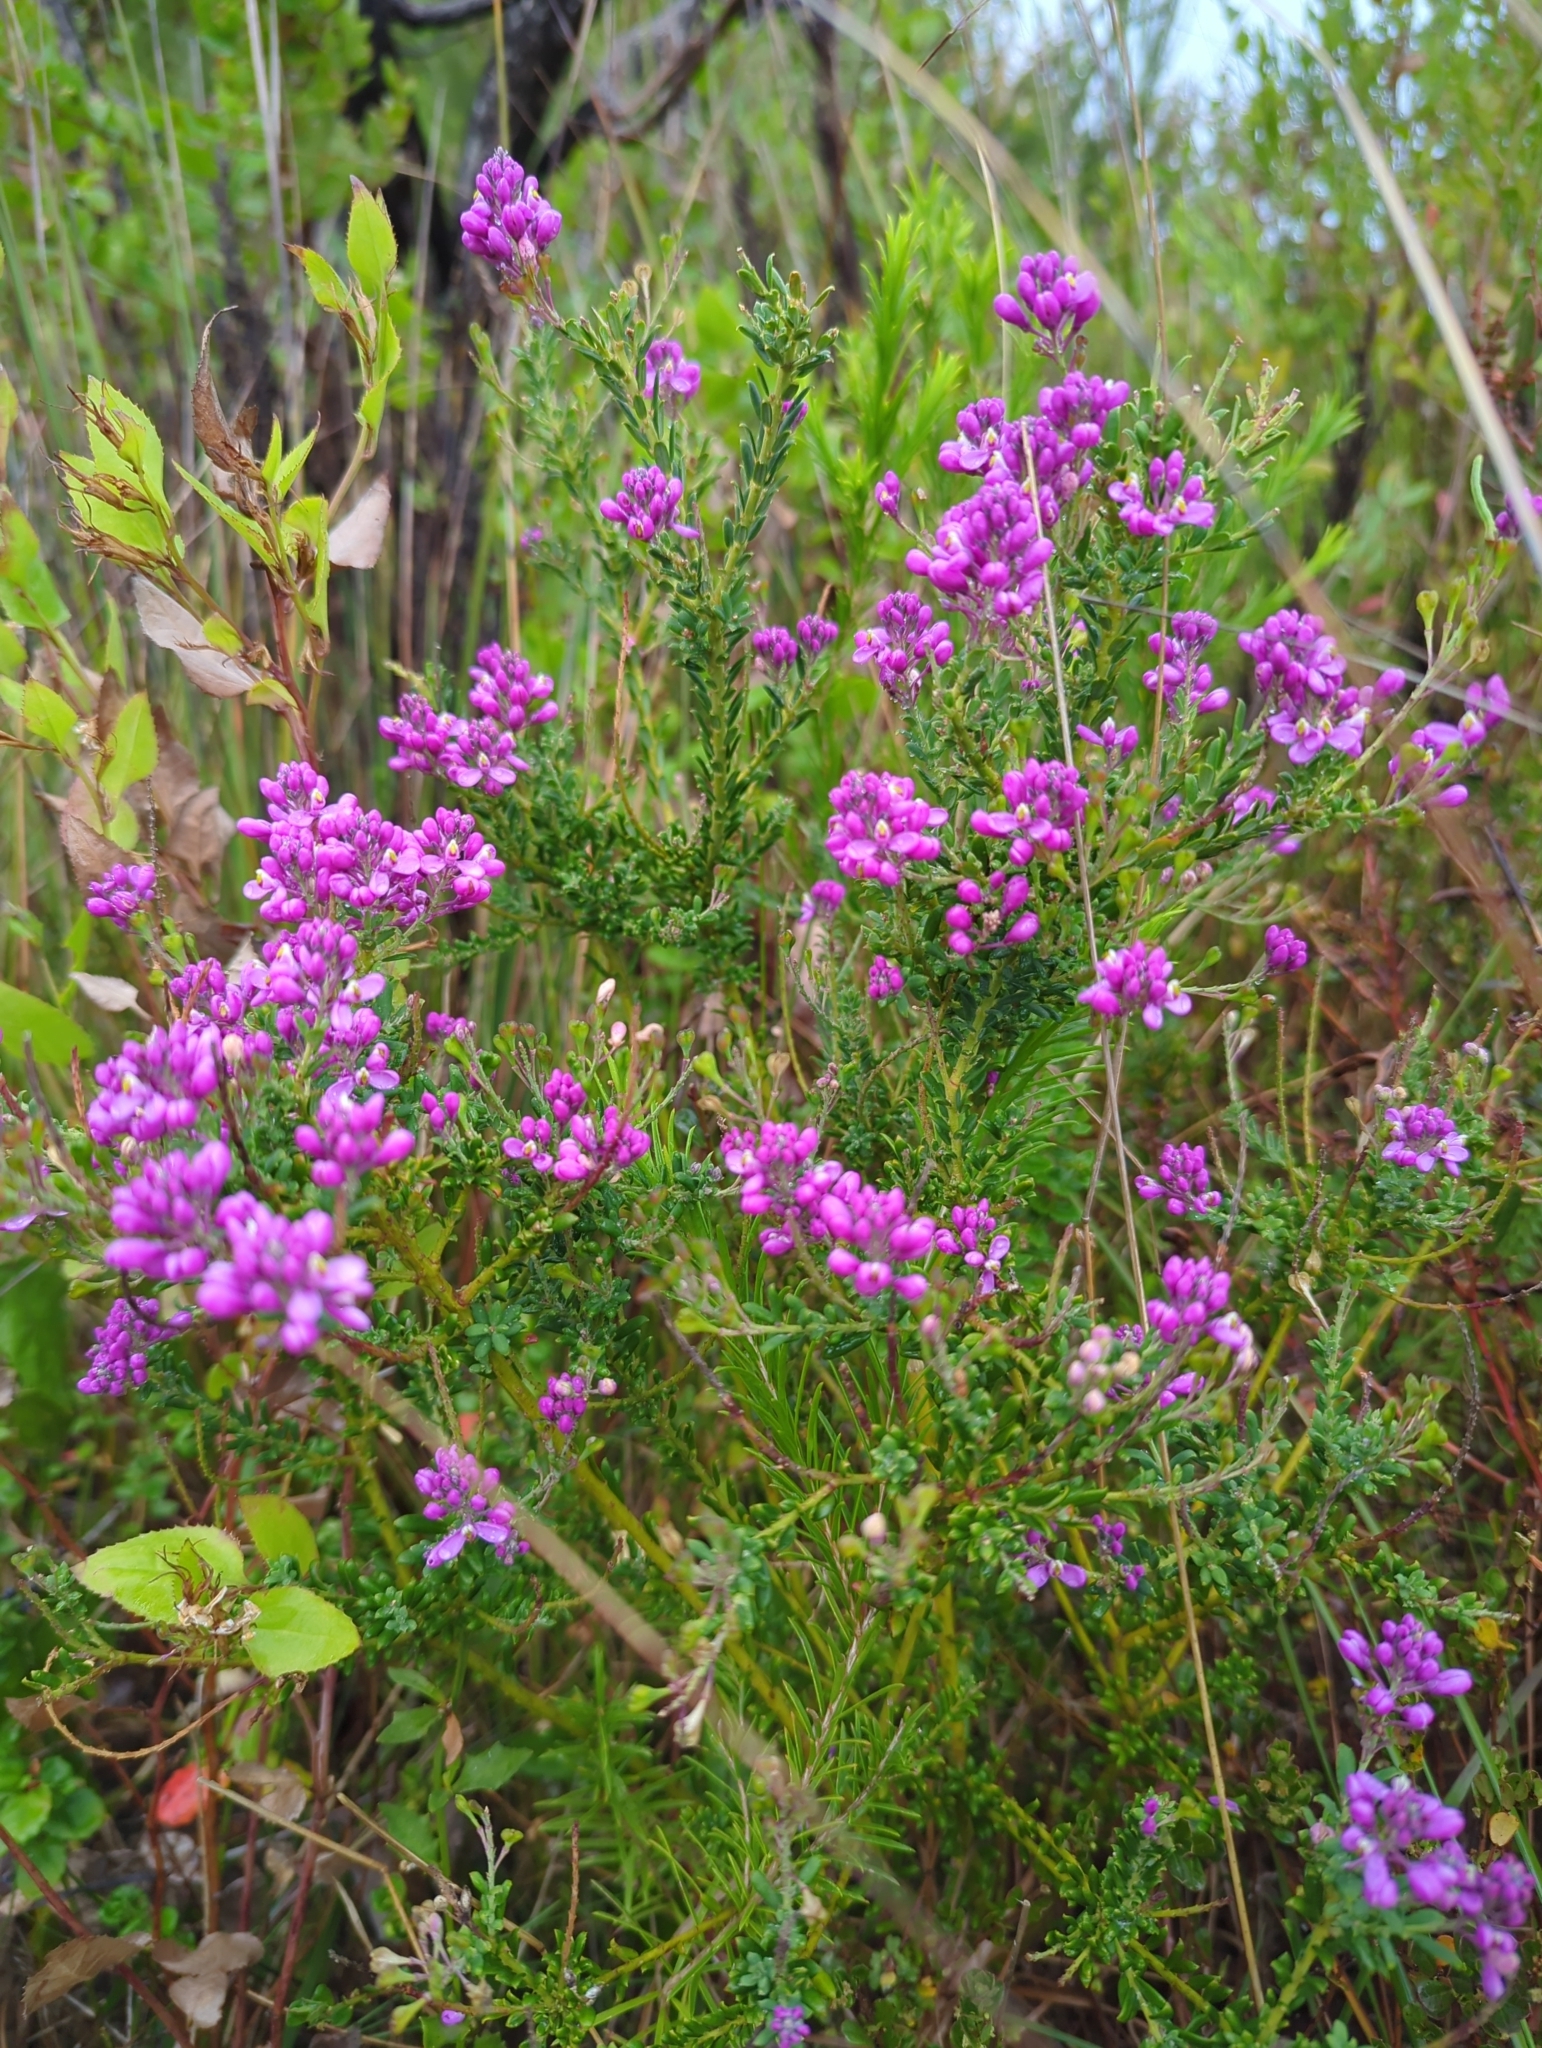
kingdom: Plantae
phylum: Tracheophyta
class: Magnoliopsida
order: Fabales
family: Polygalaceae
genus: Comesperma
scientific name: Comesperma ericinum
